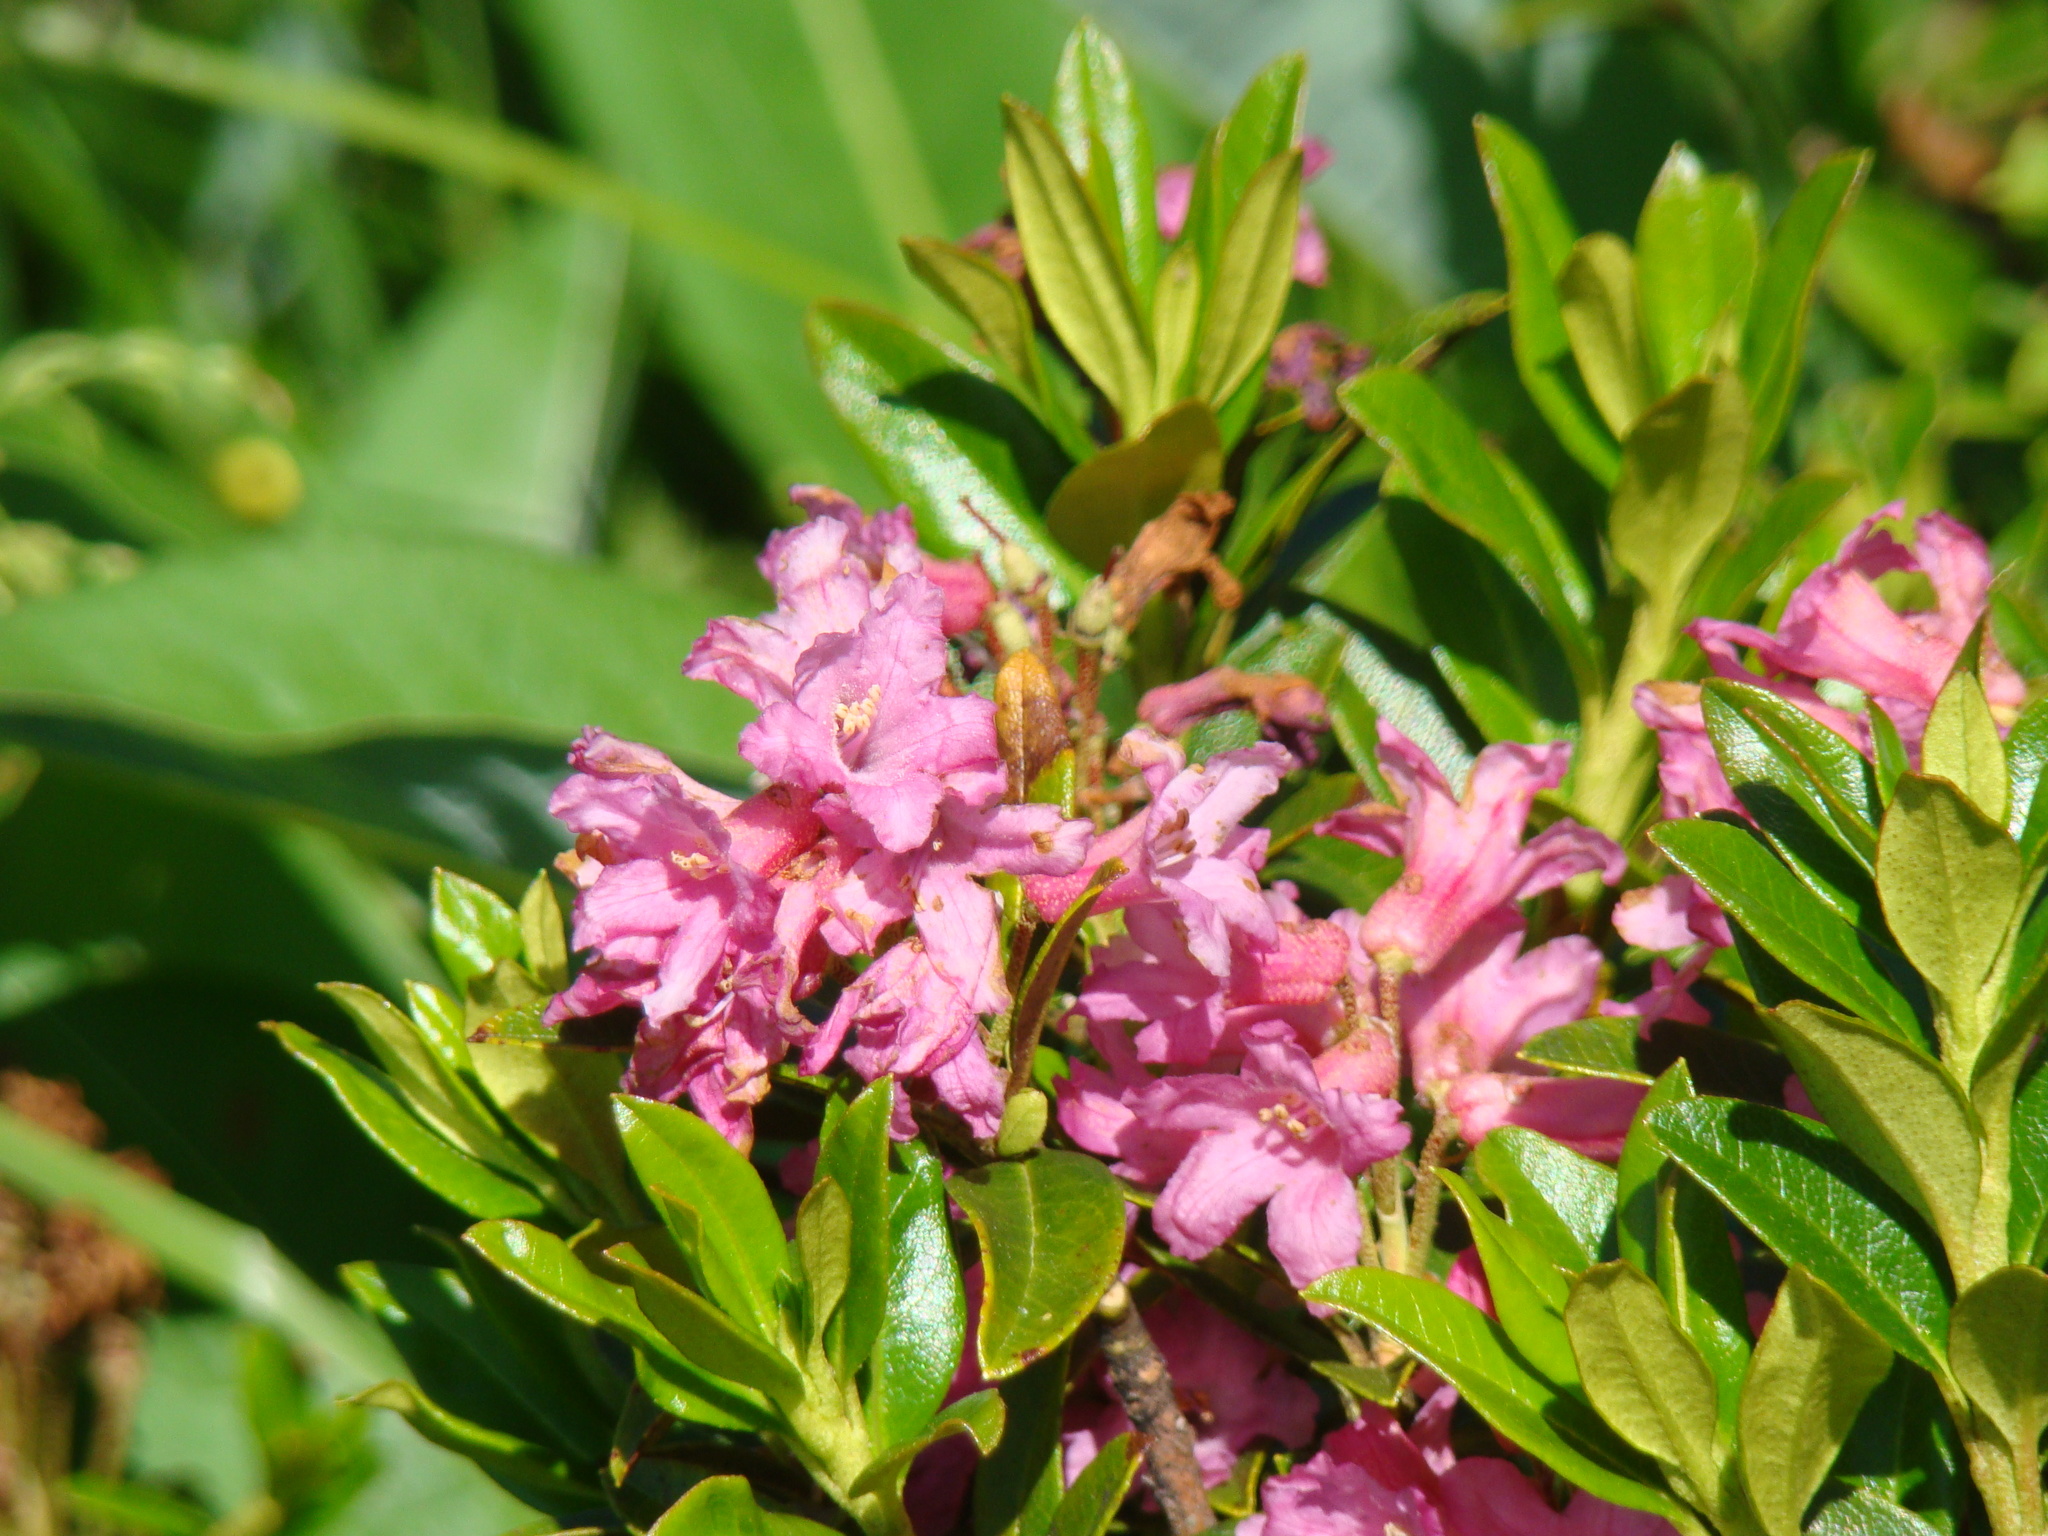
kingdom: Plantae
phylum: Tracheophyta
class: Magnoliopsida
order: Ericales
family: Ericaceae
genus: Rhododendron
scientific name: Rhododendron ferrugineum
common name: Alpenrose
